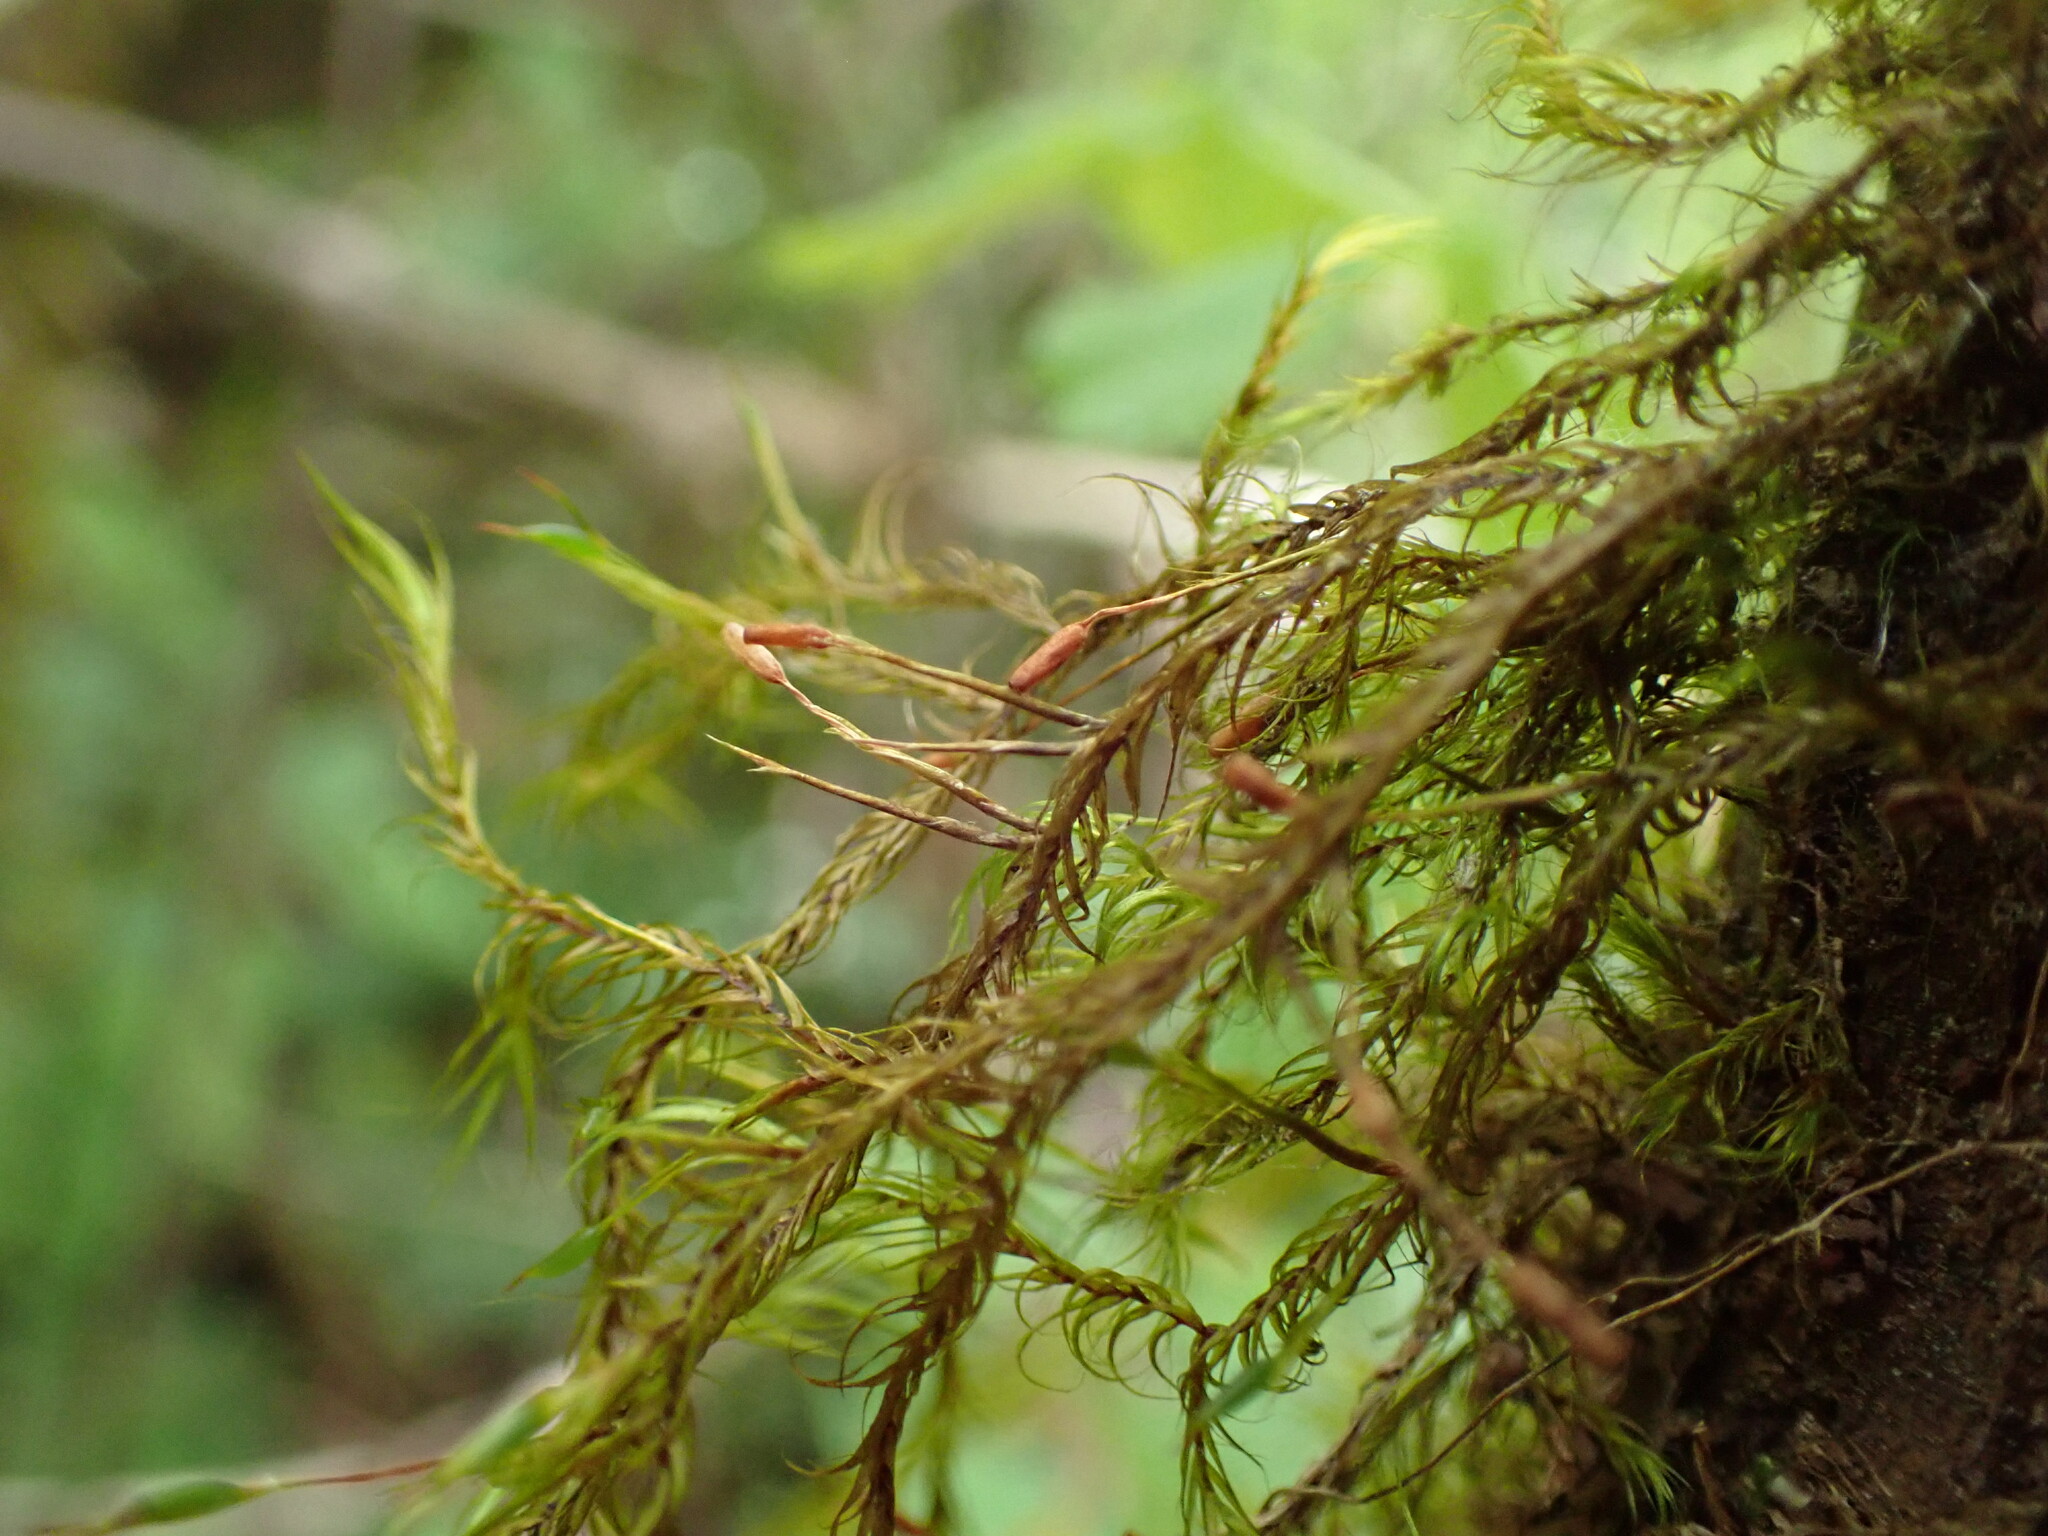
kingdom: Plantae
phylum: Bryophyta
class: Bryopsida
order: Hypnales
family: Fontinalaceae
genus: Dichelyma
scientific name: Dichelyma uncinatum
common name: Sickle-leaved claw moss
